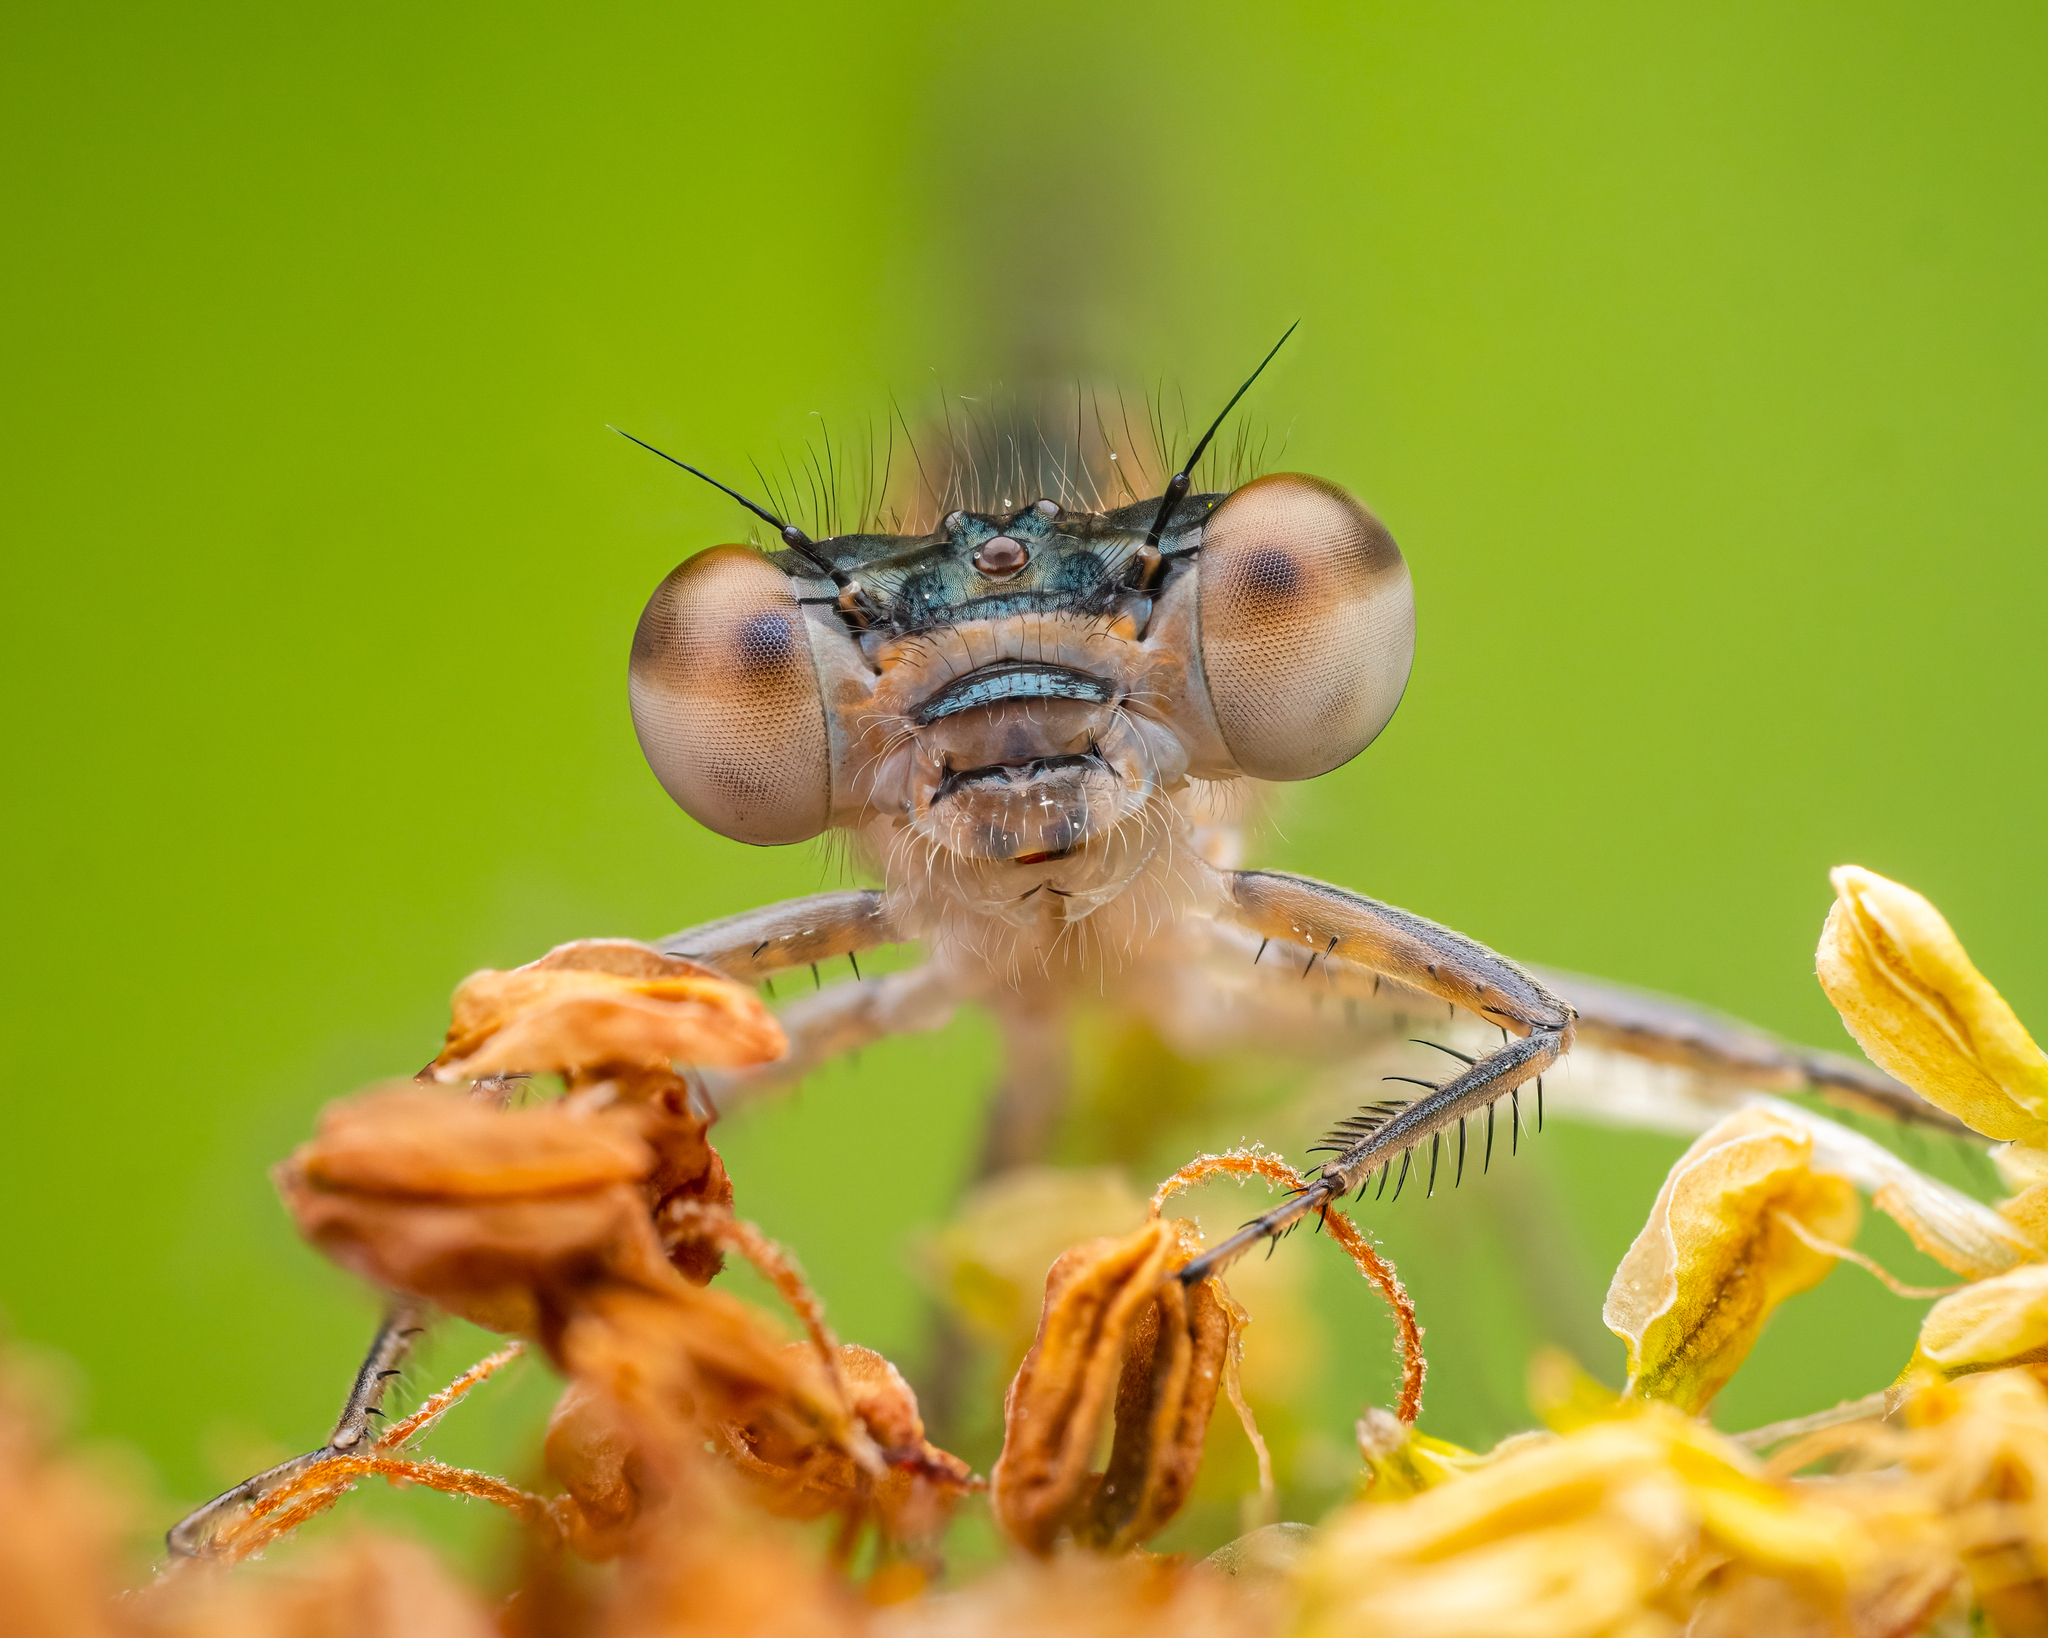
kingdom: Animalia
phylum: Arthropoda
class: Insecta
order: Odonata
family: Coenagrionidae
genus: Ischnura
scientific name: Ischnura elegans
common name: Blue-tailed damselfly
